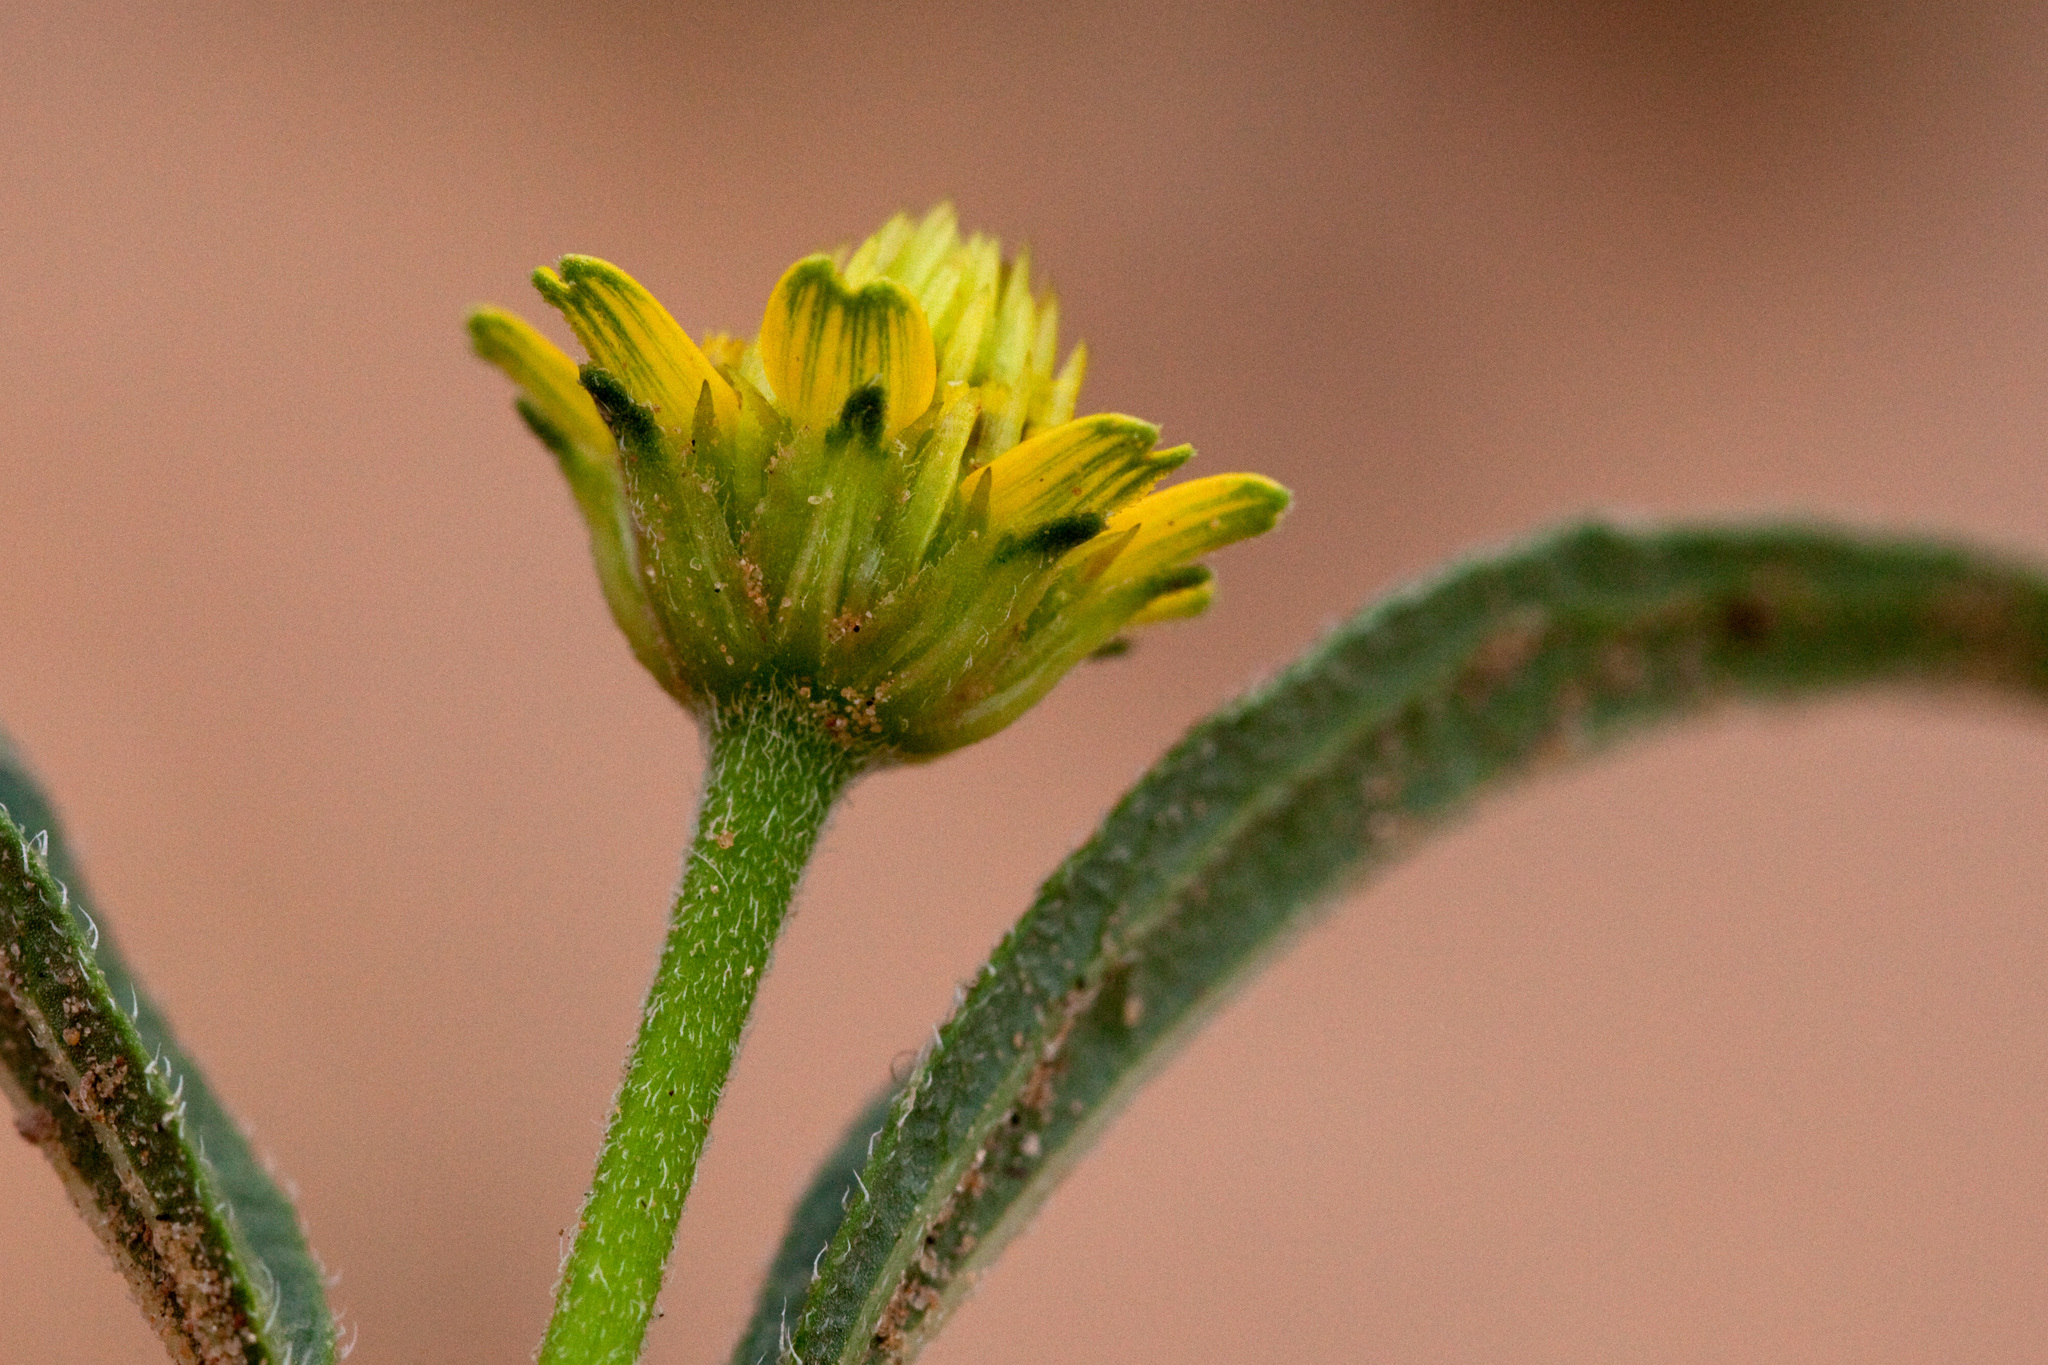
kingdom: Plantae
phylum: Tracheophyta
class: Magnoliopsida
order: Asterales
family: Asteraceae
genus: Sanvitalia
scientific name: Sanvitalia abertii
